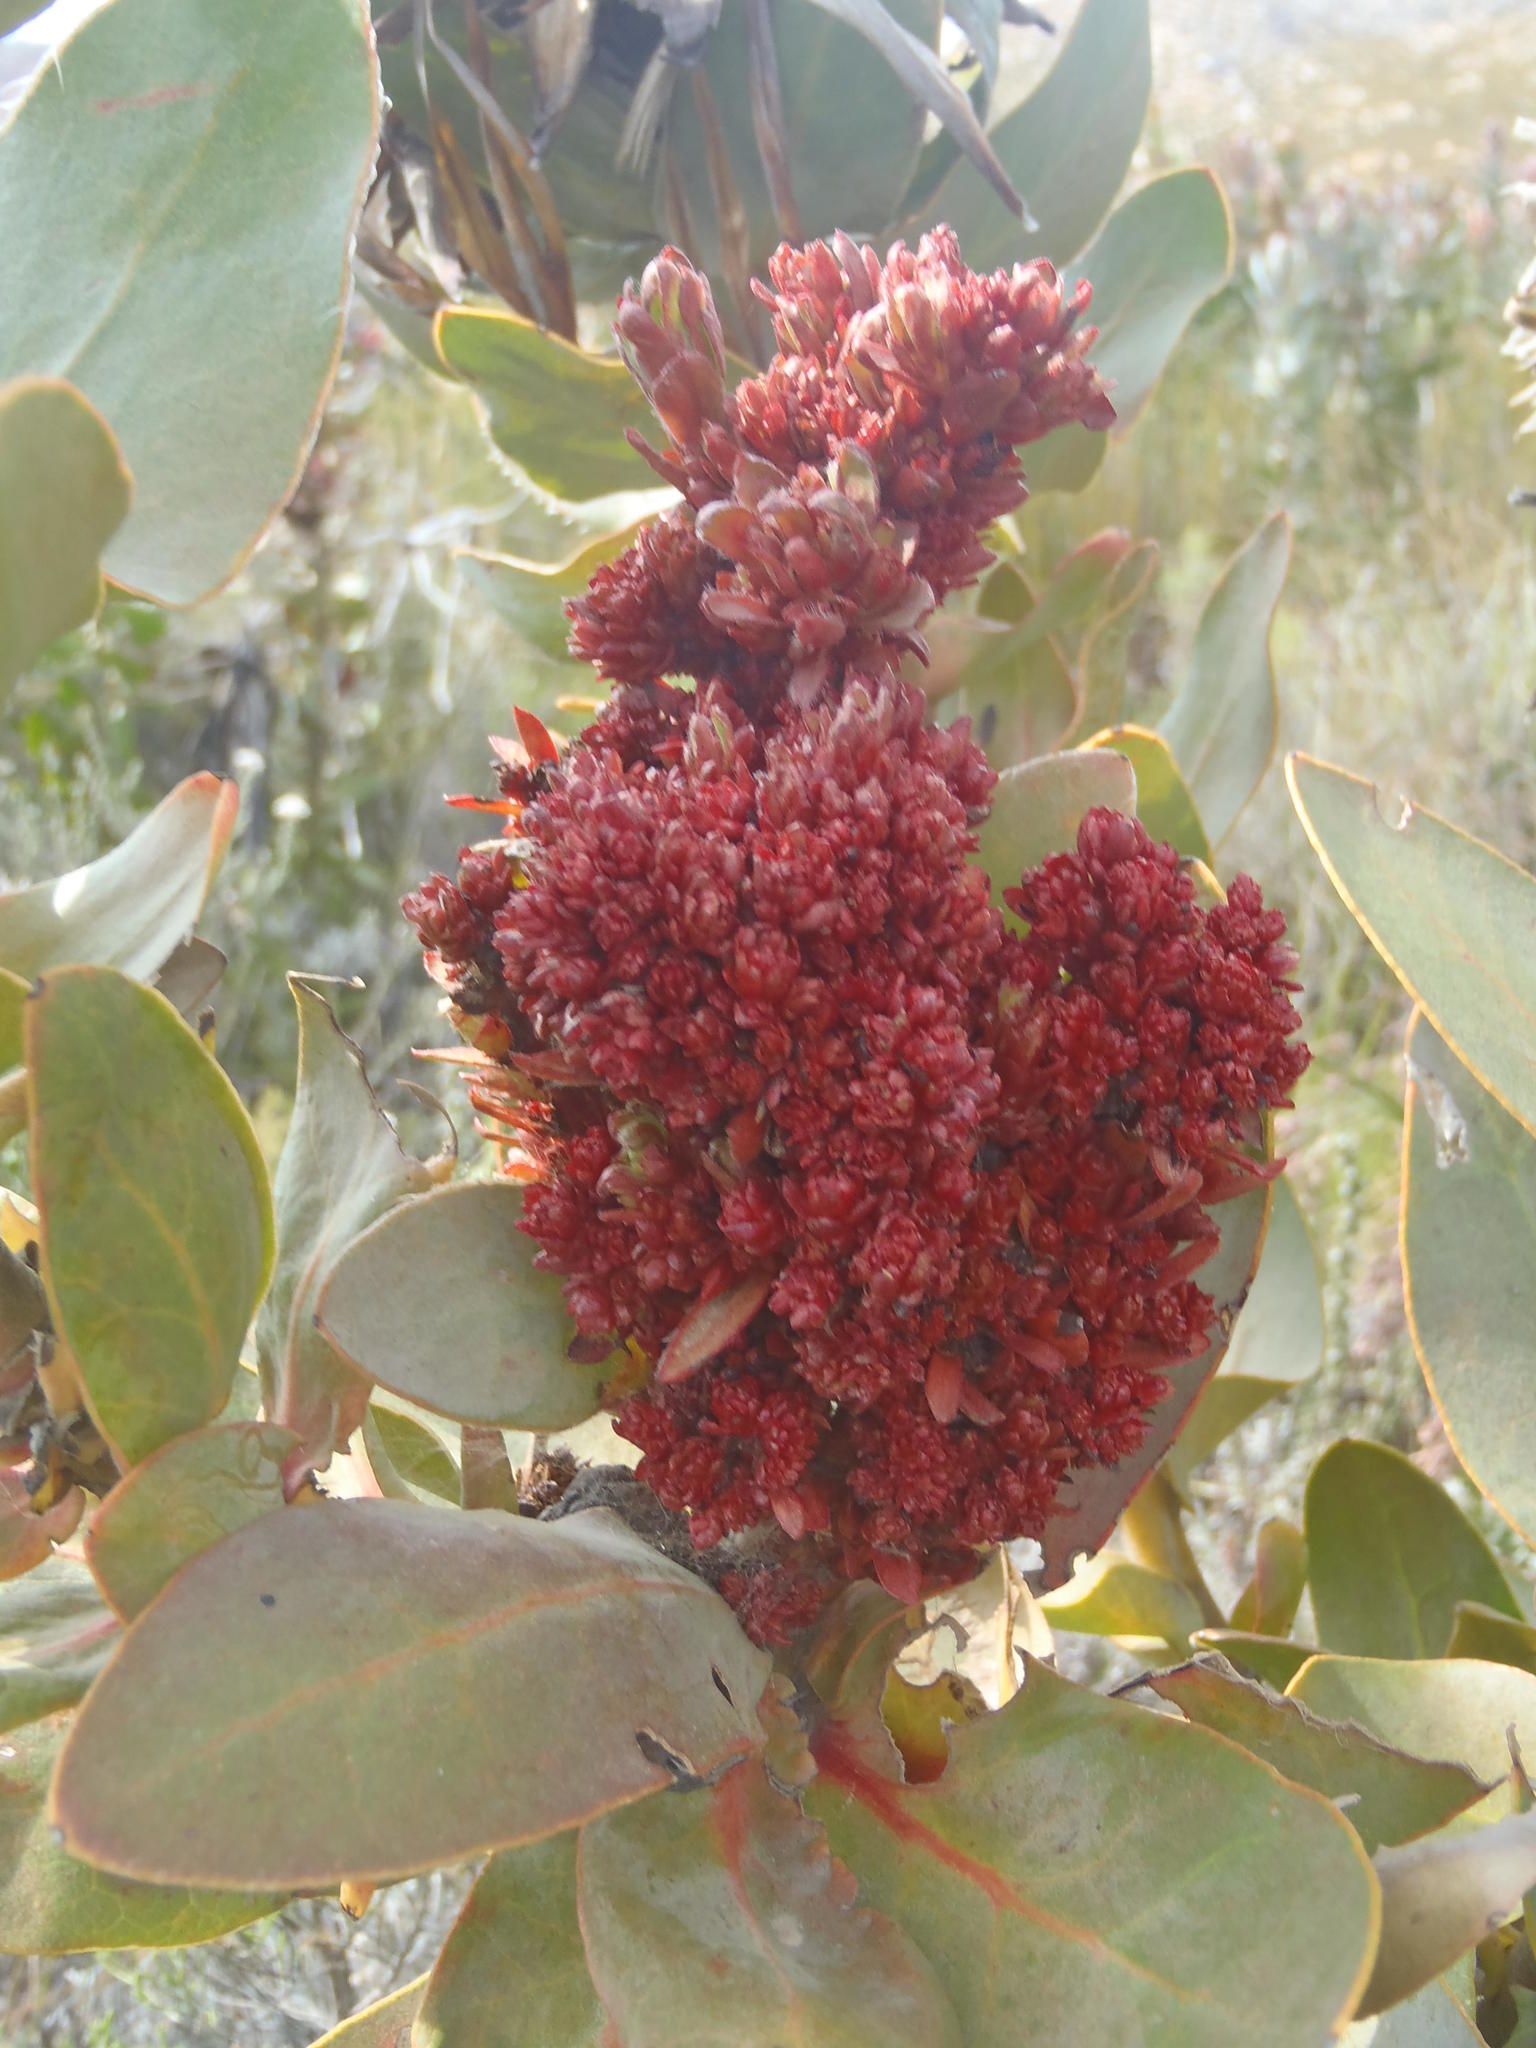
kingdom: Bacteria
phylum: Firmicutes
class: Bacilli
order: Acholeplasmatales
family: Acholeplasmataceae
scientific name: Acholeplasmataceae
